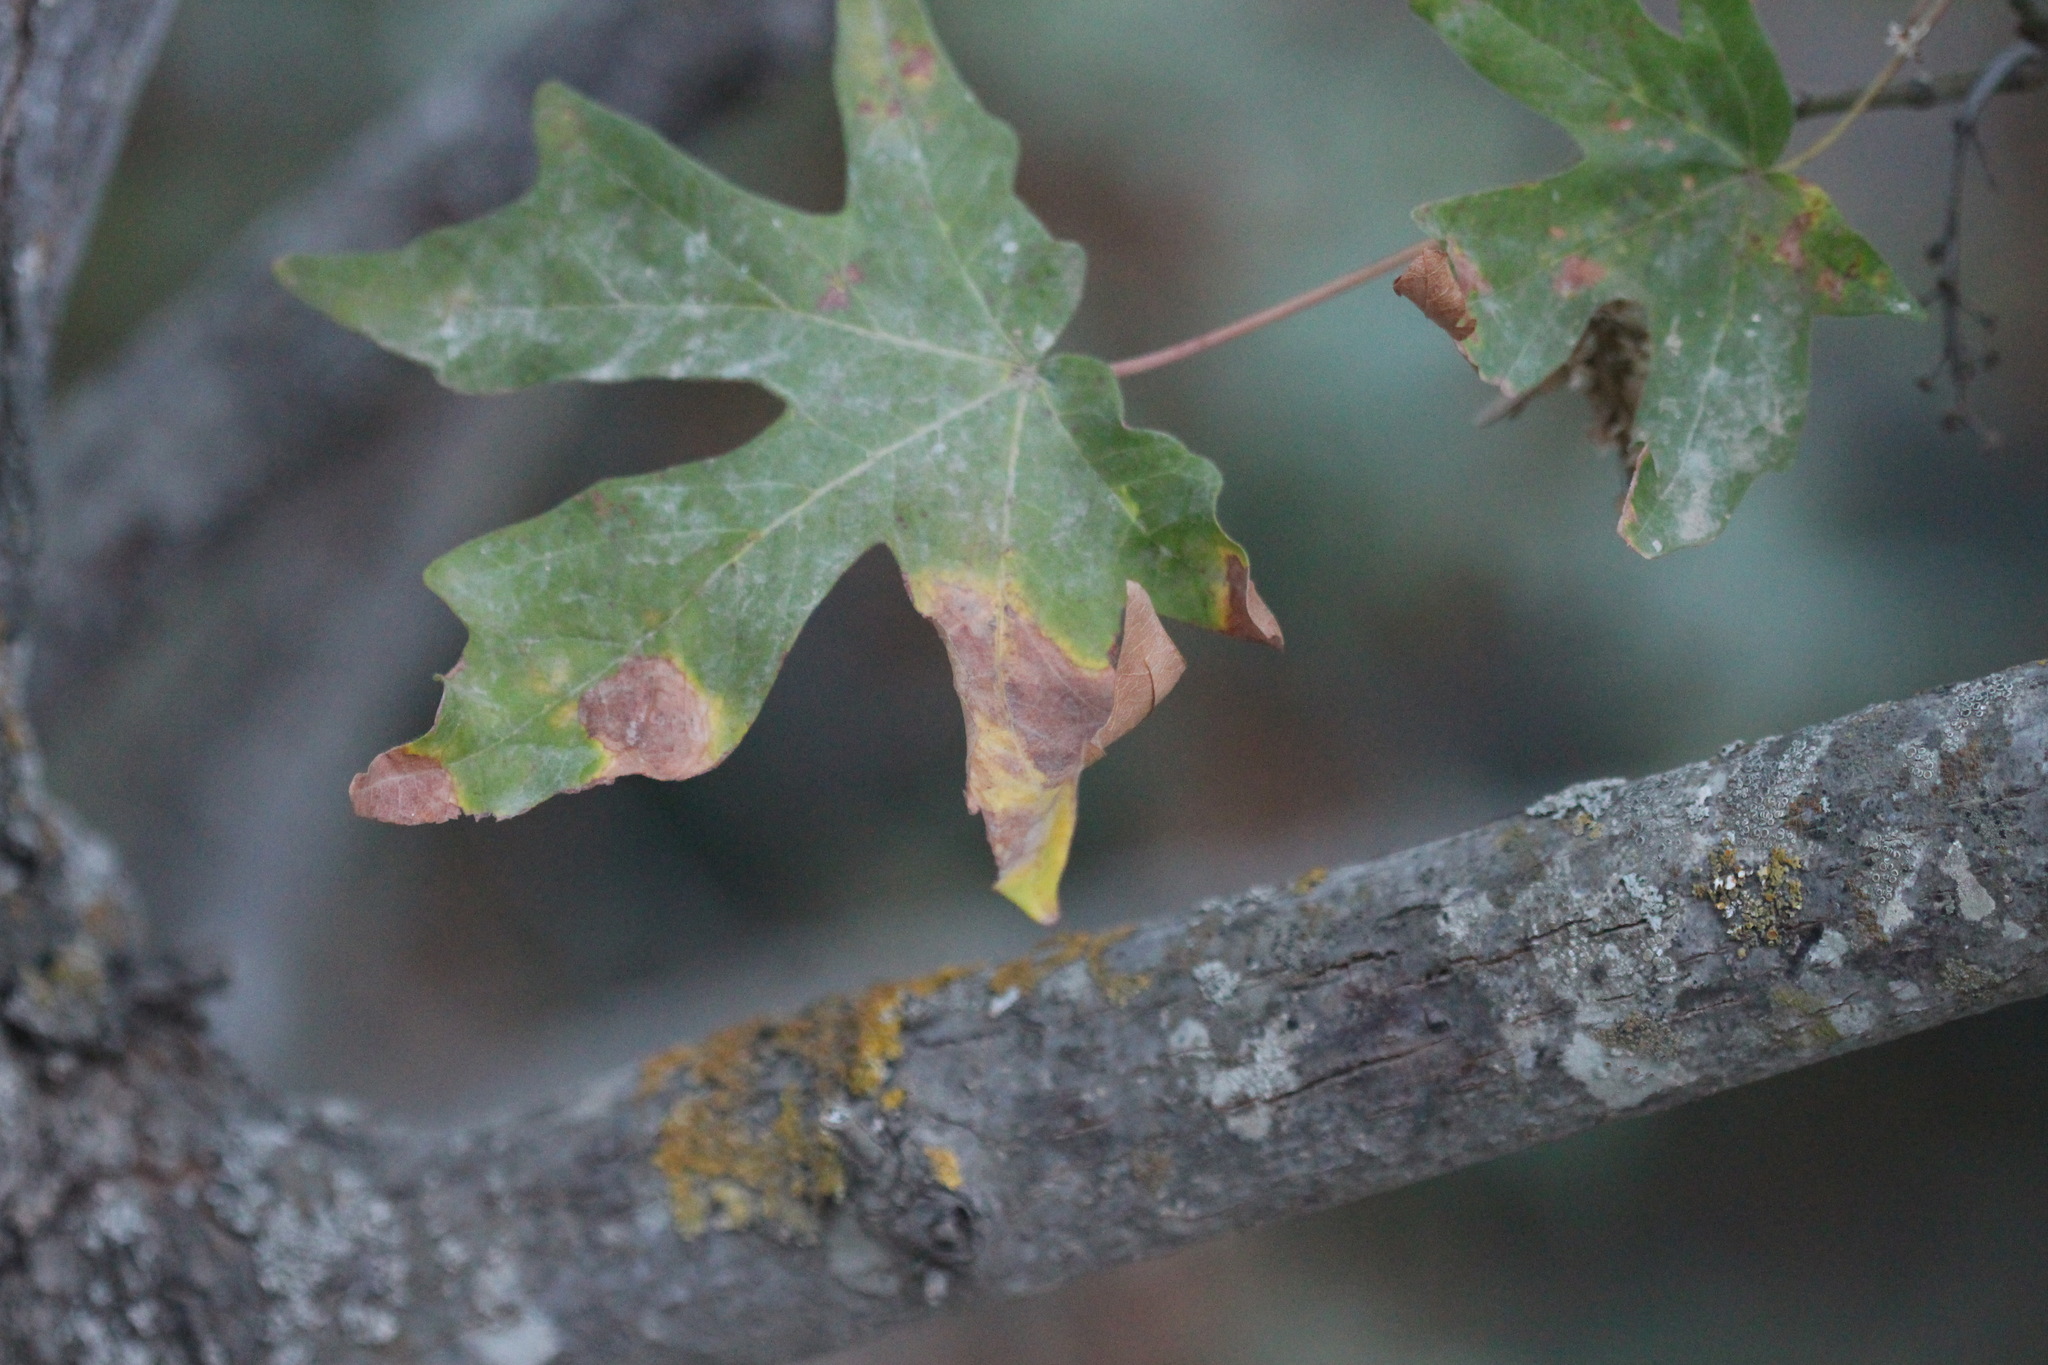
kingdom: Plantae
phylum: Tracheophyta
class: Magnoliopsida
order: Sapindales
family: Sapindaceae
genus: Acer
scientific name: Acer macrophyllum
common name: Oregon maple
